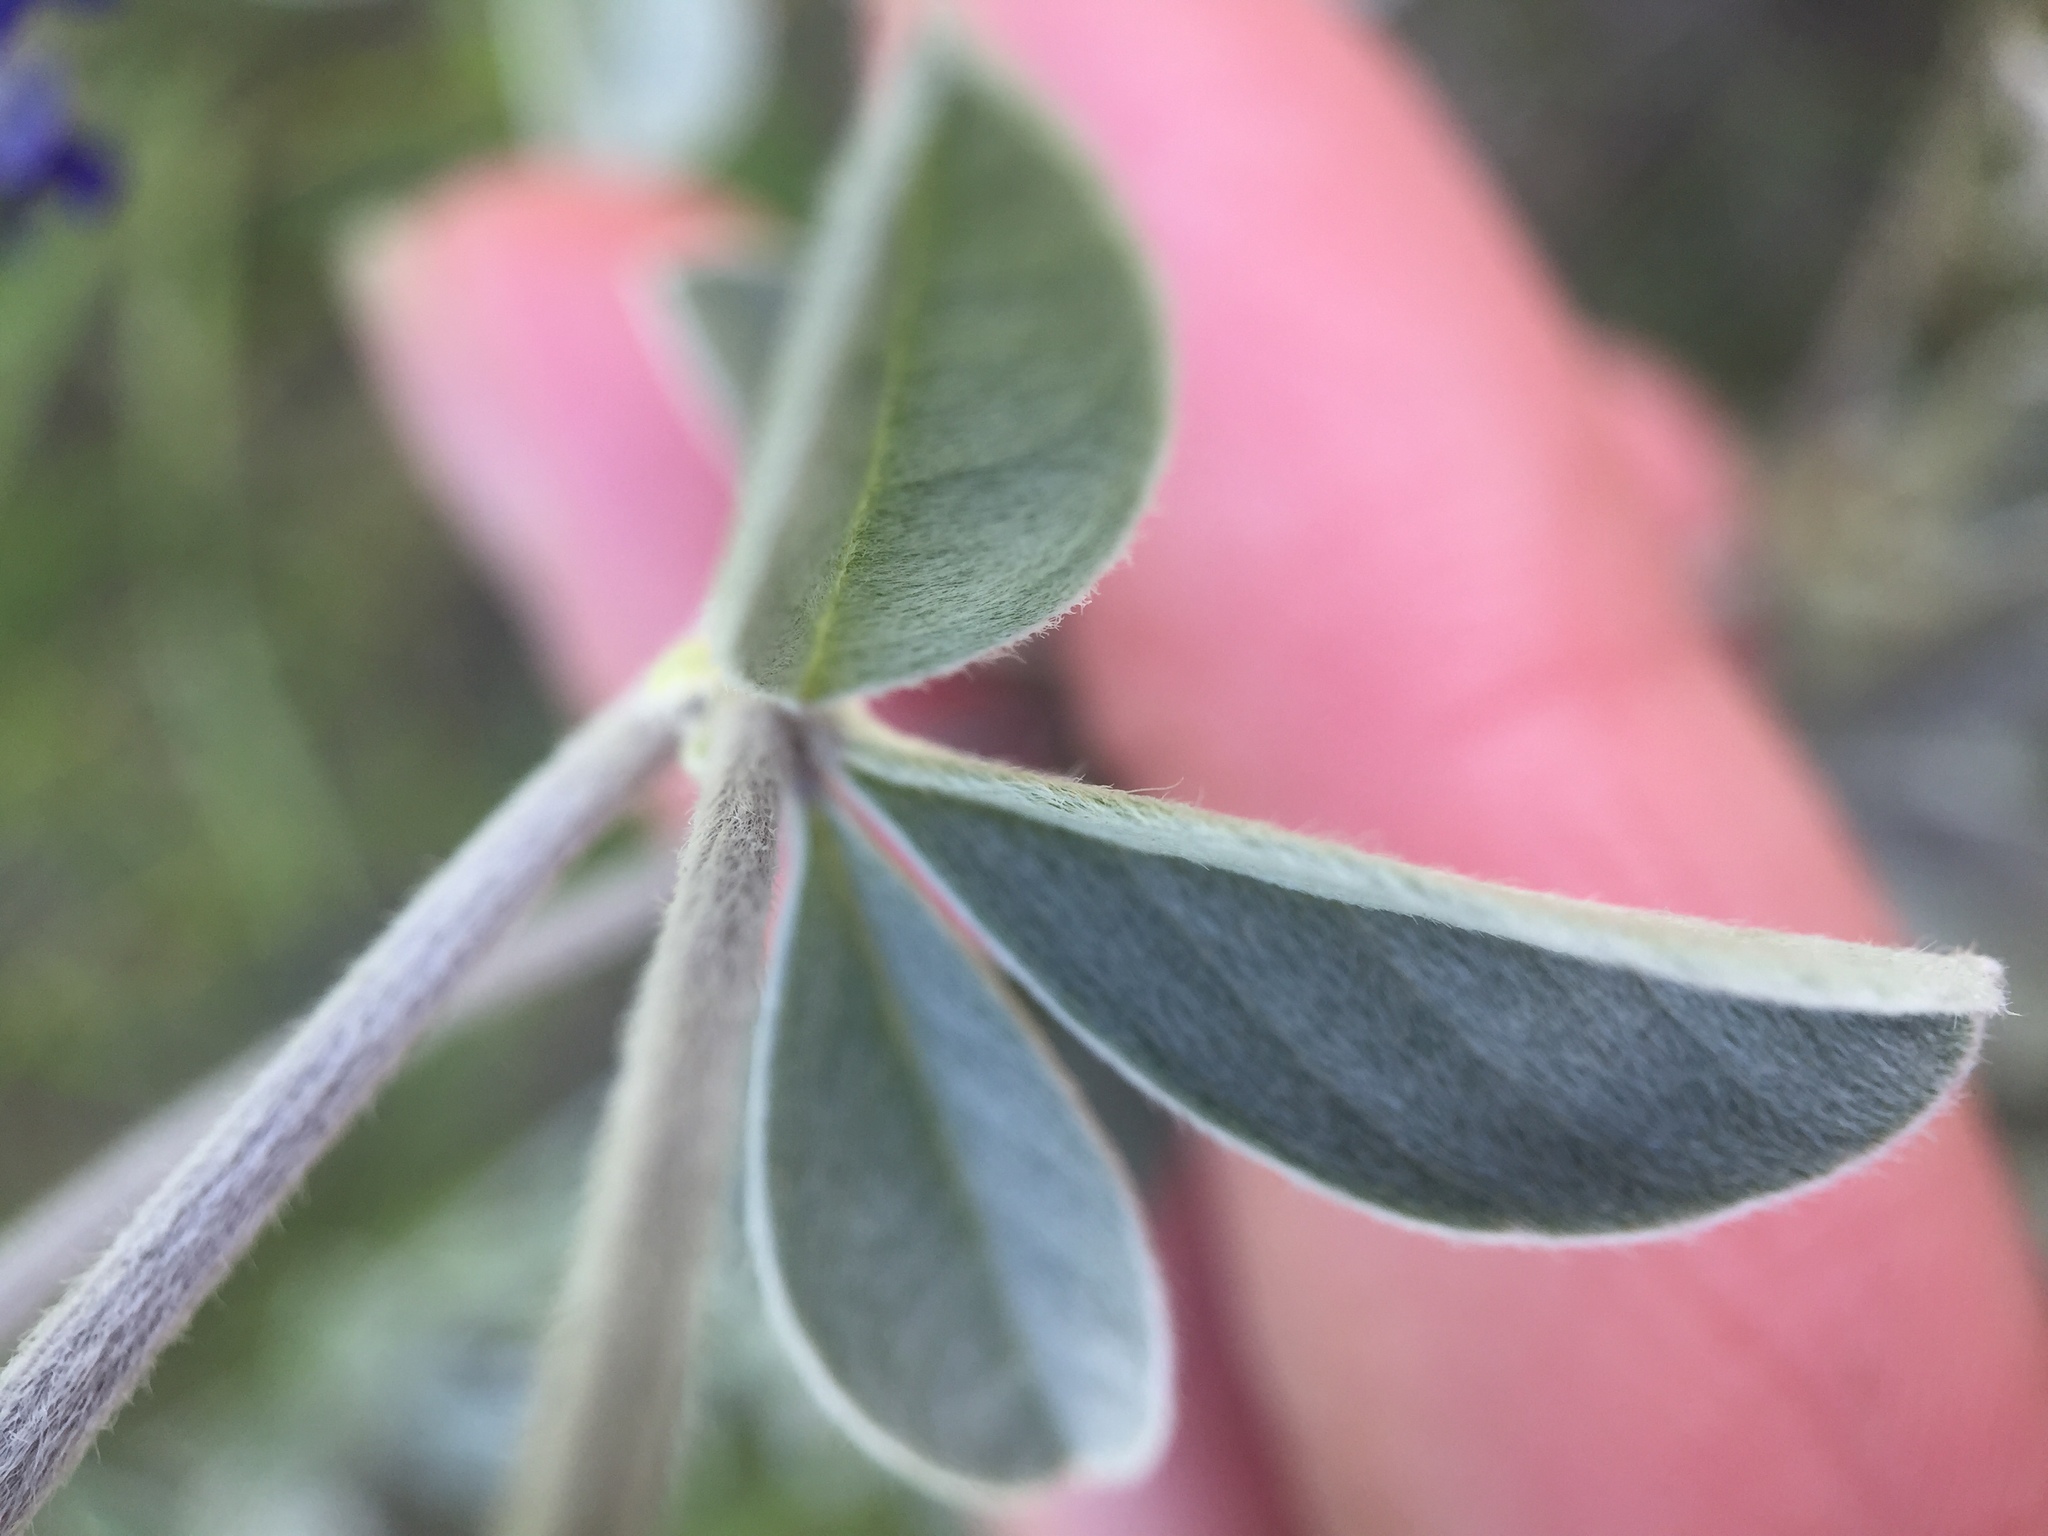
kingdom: Plantae
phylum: Tracheophyta
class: Magnoliopsida
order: Fabales
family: Fabaceae
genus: Pediomelum
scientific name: Pediomelum argophyllum
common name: Silver-leaved indian breadroot
